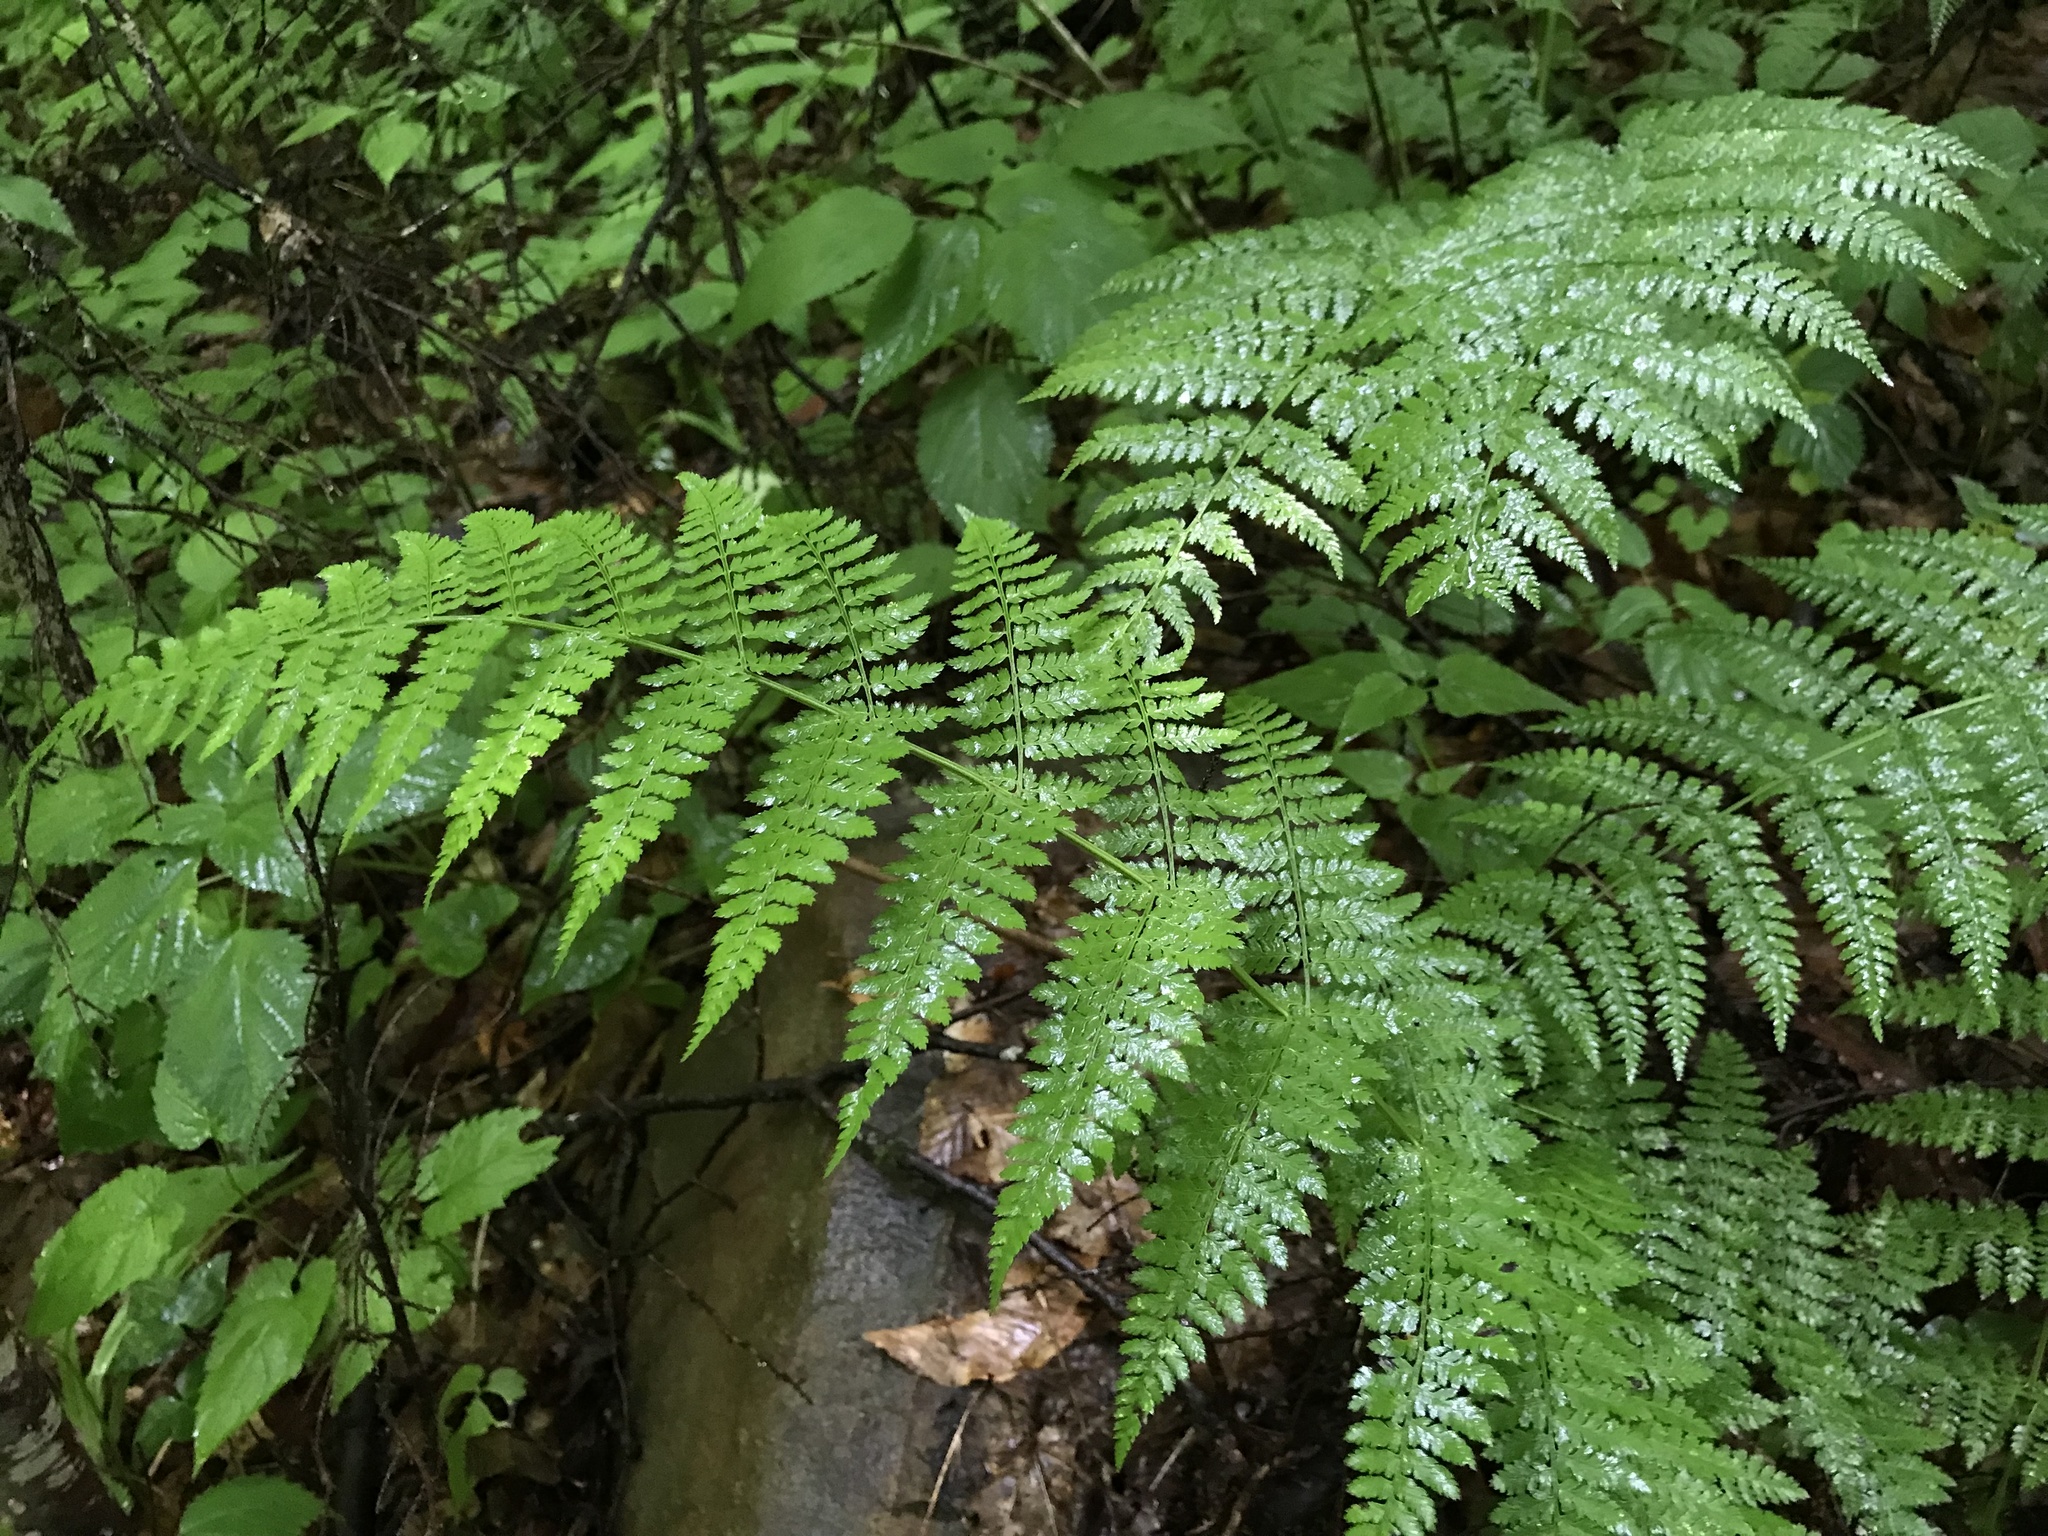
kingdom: Plantae
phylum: Tracheophyta
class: Polypodiopsida
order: Polypodiales
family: Dryopteridaceae
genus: Dryopteris
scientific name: Dryopteris intermedia
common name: Evergreen wood fern
